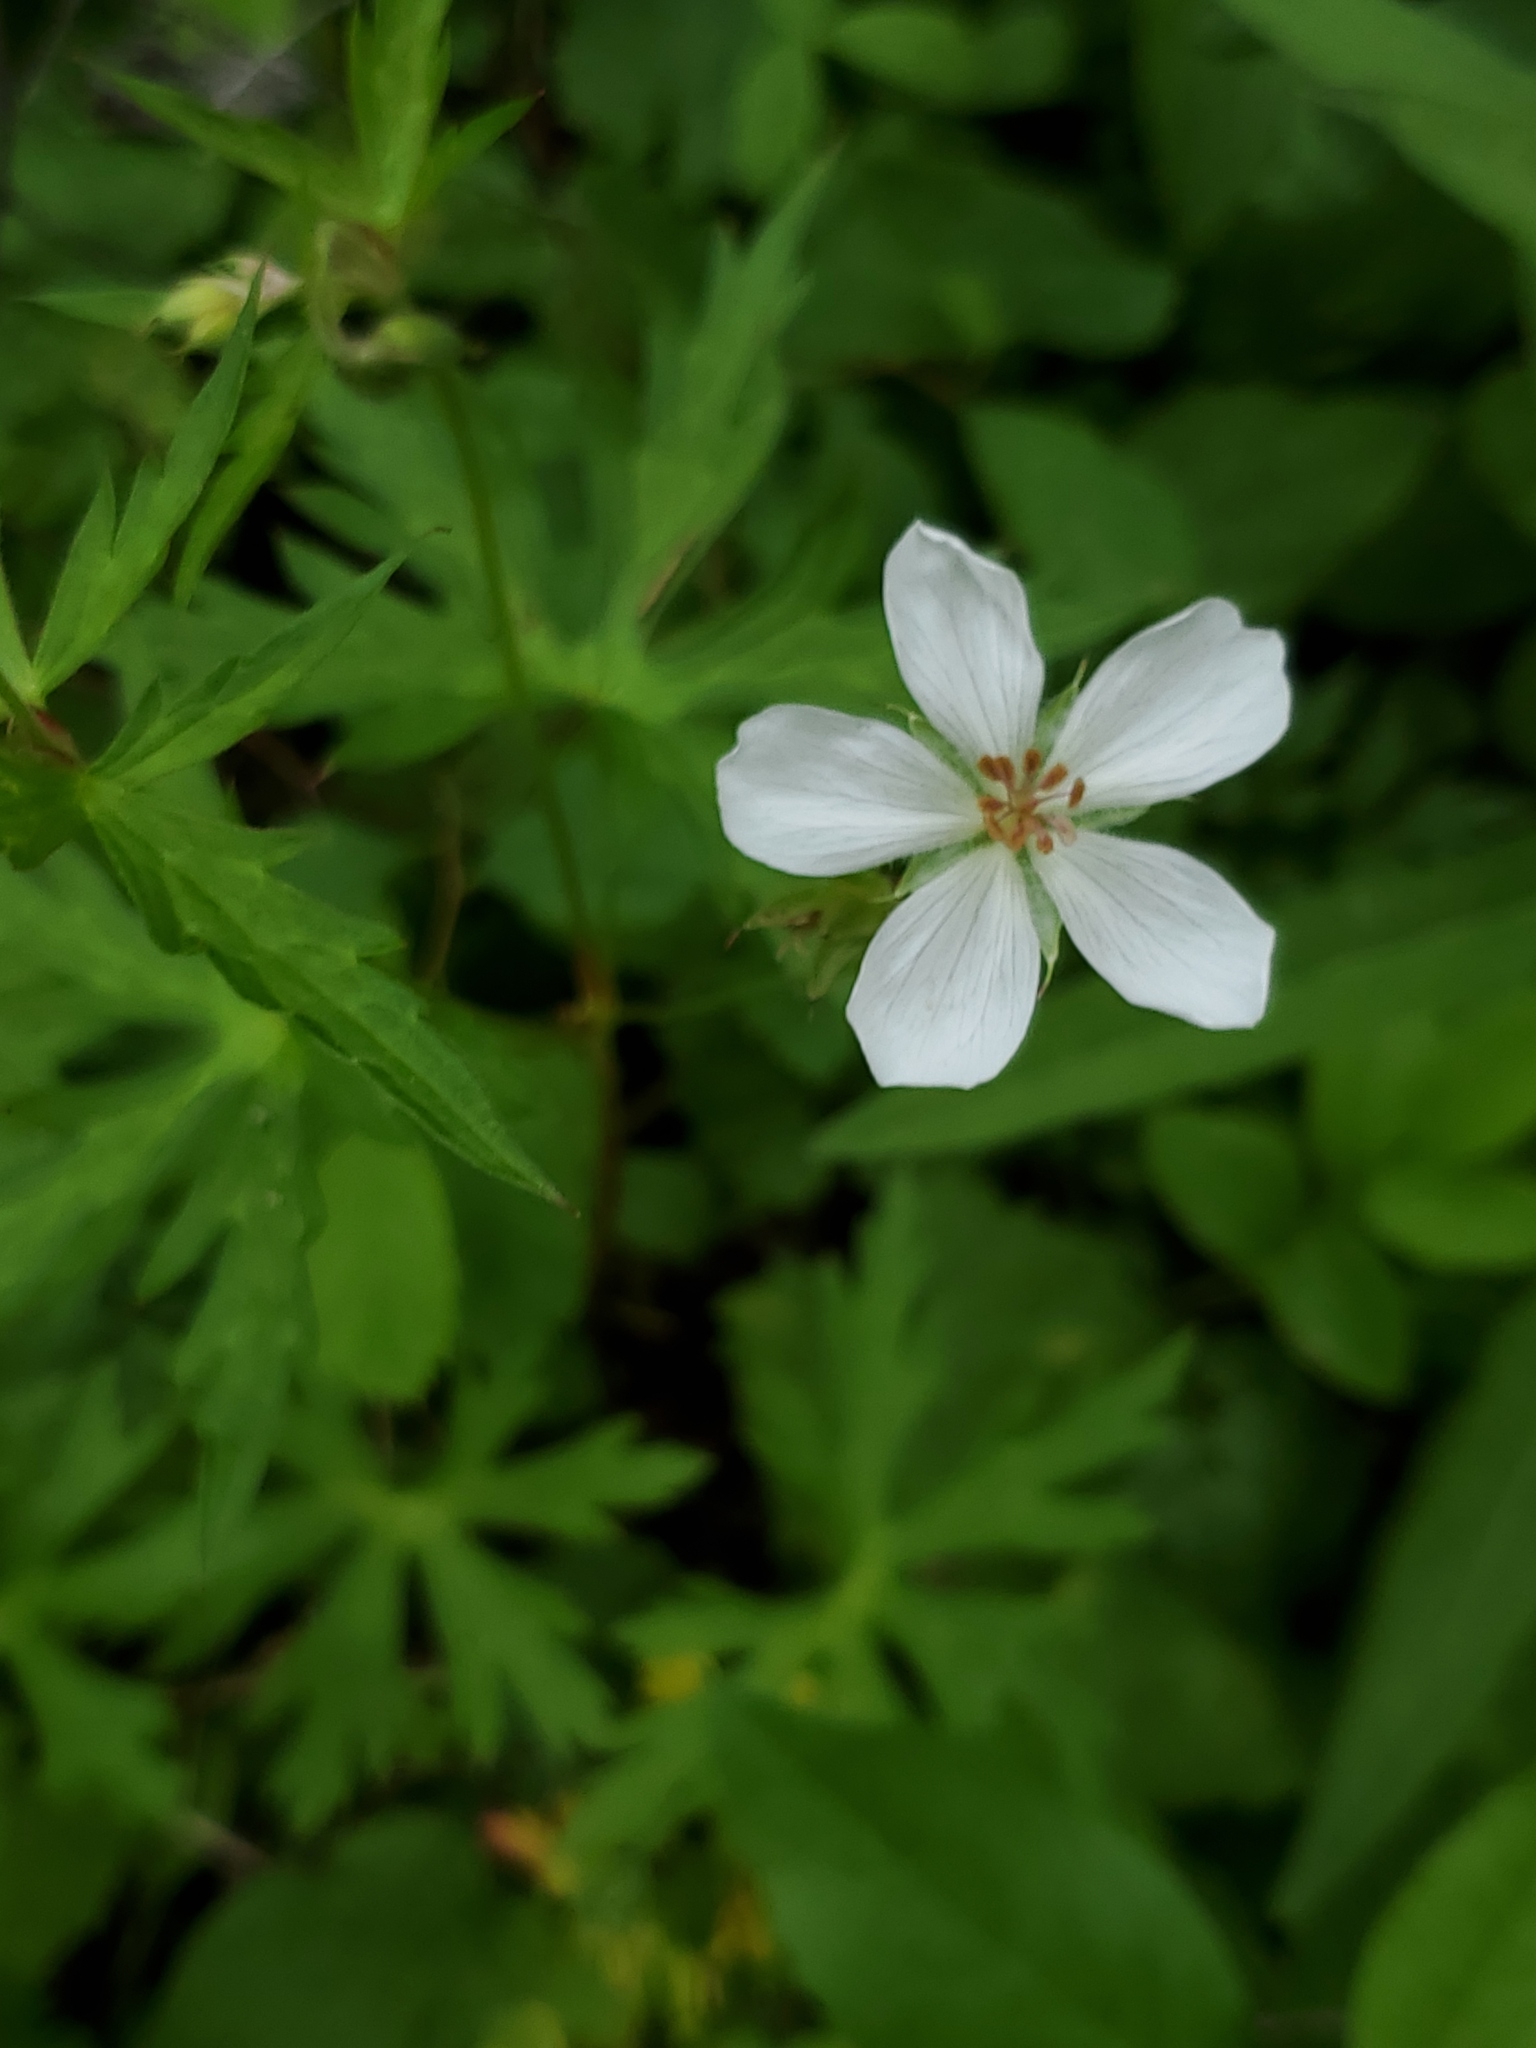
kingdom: Plantae
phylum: Tracheophyta
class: Magnoliopsida
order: Geraniales
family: Geraniaceae
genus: Geranium
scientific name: Geranium richardsonii
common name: Richardson's crane's-bill
